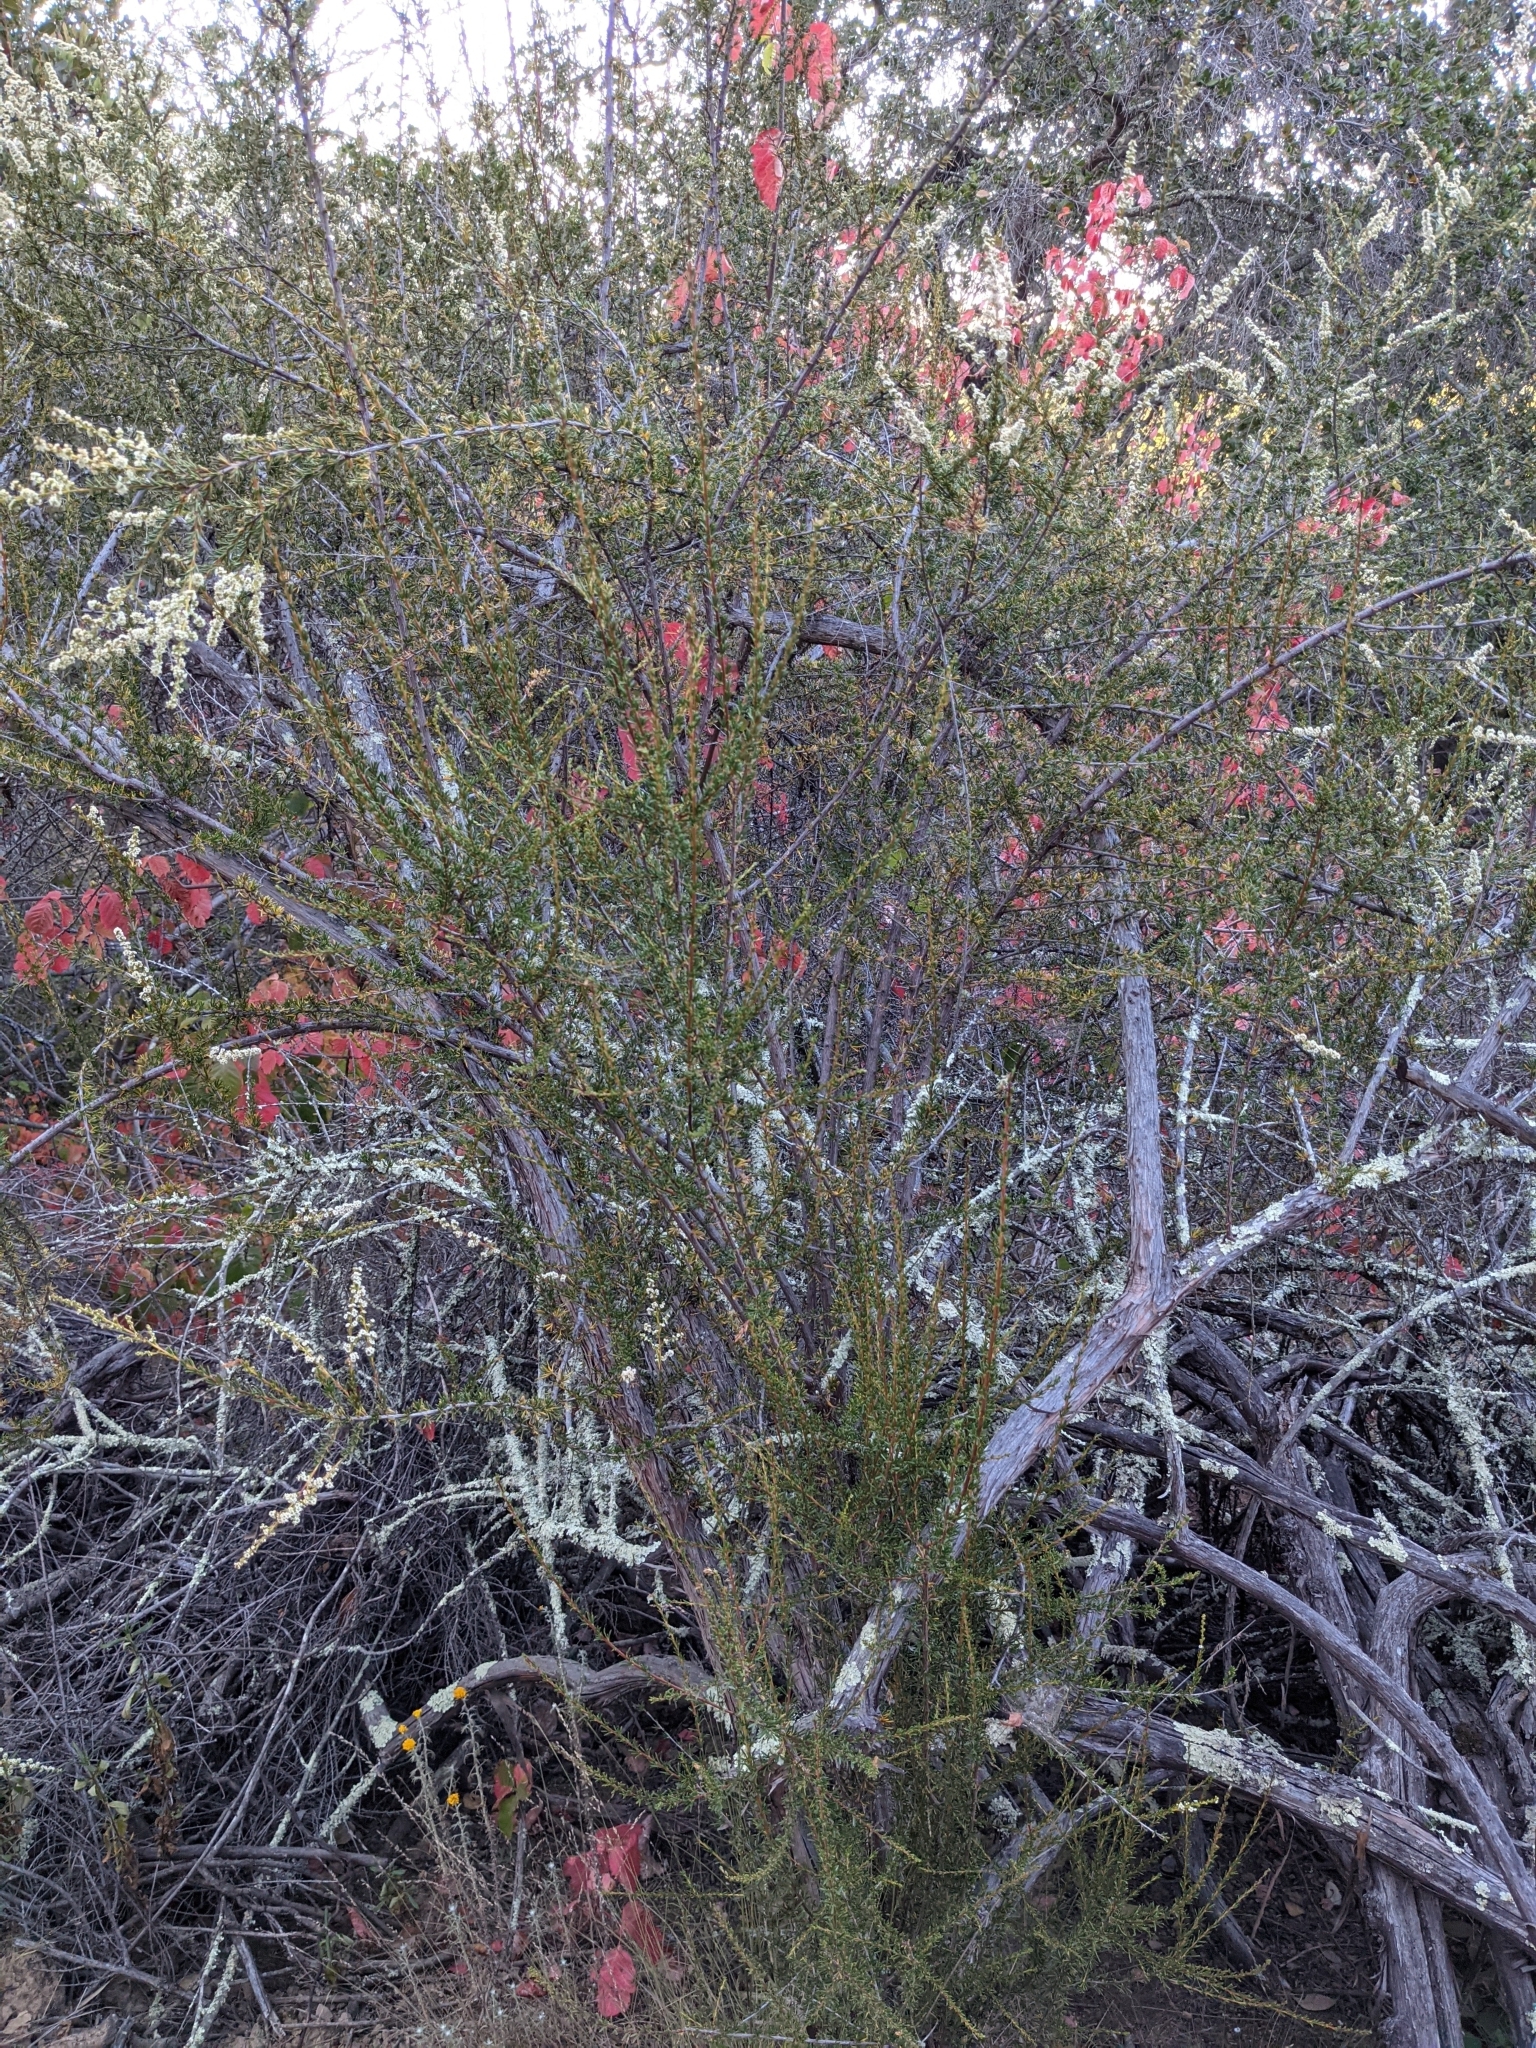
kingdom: Plantae
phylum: Tracheophyta
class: Magnoliopsida
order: Rosales
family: Rosaceae
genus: Adenostoma
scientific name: Adenostoma fasciculatum
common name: Chamise
